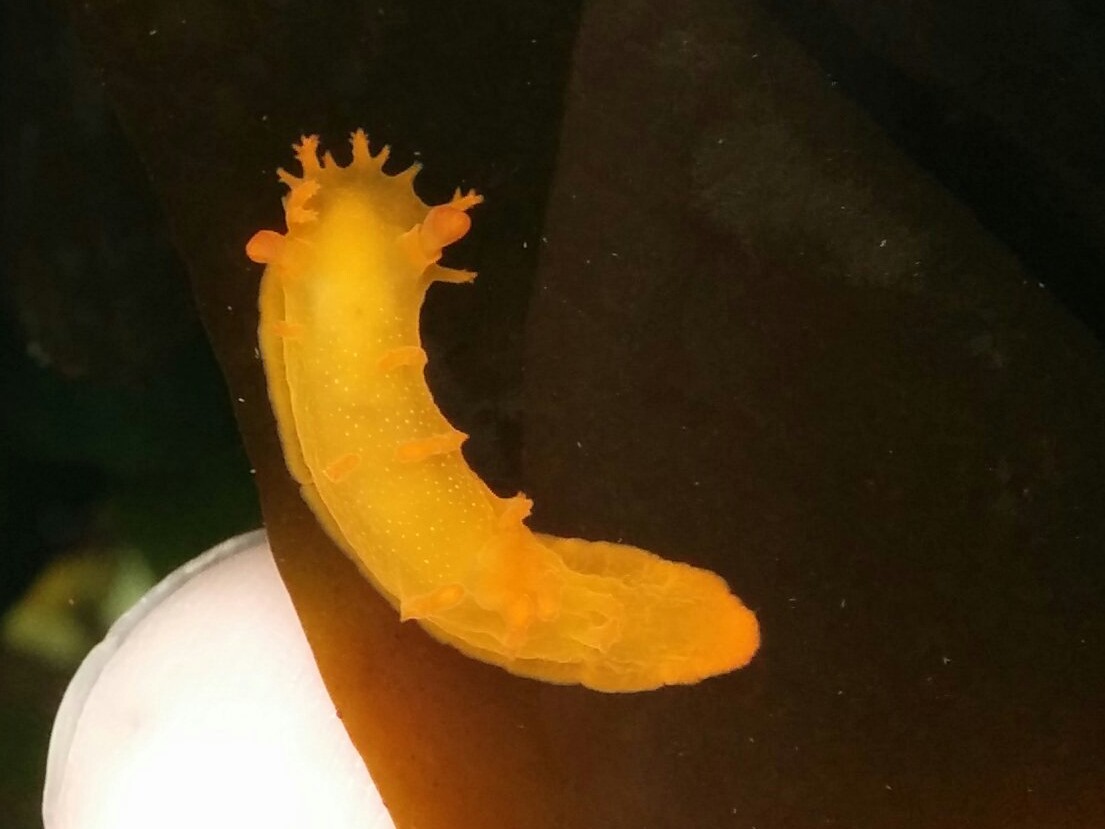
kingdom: Animalia
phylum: Mollusca
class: Gastropoda
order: Nudibranchia
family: Polyceridae
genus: Triopha
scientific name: Triopha maculata
